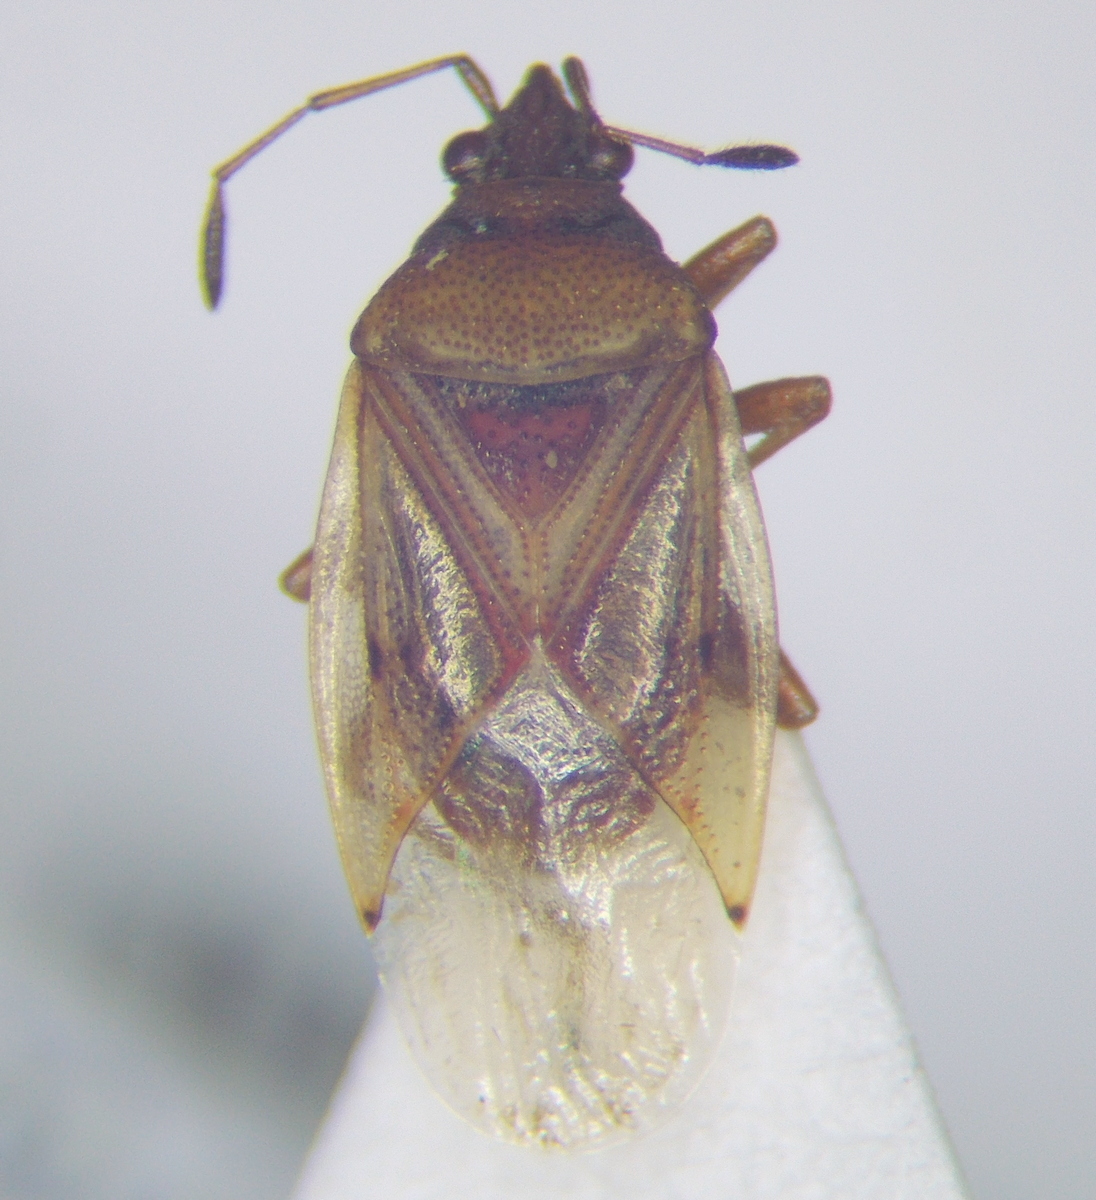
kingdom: Animalia
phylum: Arthropoda
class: Insecta
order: Hemiptera
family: Lygaeidae
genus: Kleidocerys
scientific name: Kleidocerys resedae
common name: Birch catkin bug
